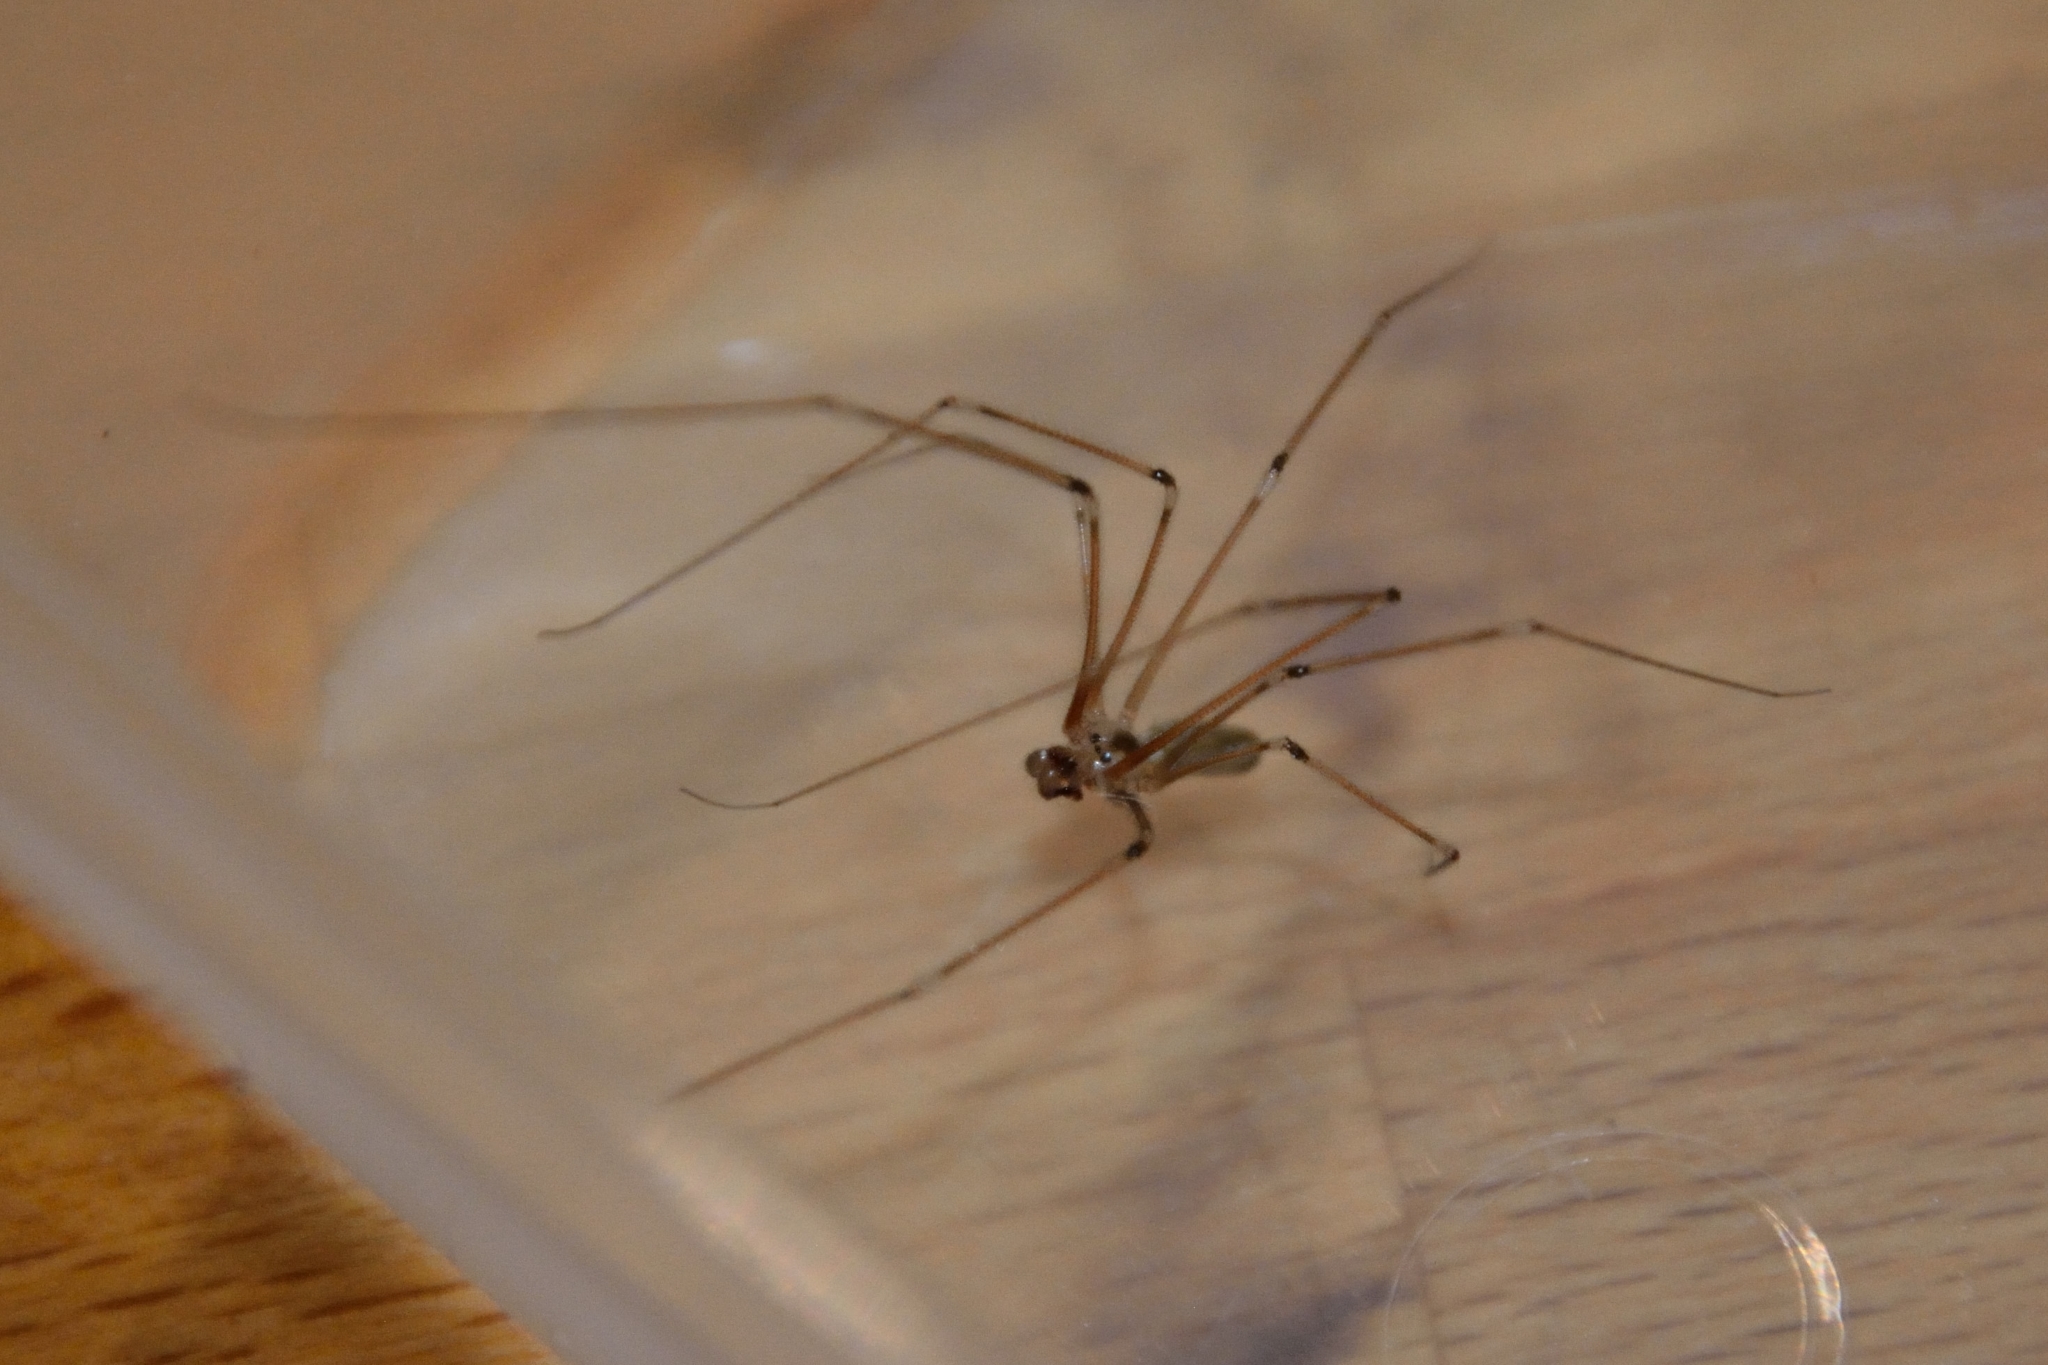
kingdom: Animalia
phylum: Arthropoda
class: Arachnida
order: Araneae
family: Pholcidae
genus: Pholcus
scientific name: Pholcus phalangioides
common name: Longbodied cellar spider
